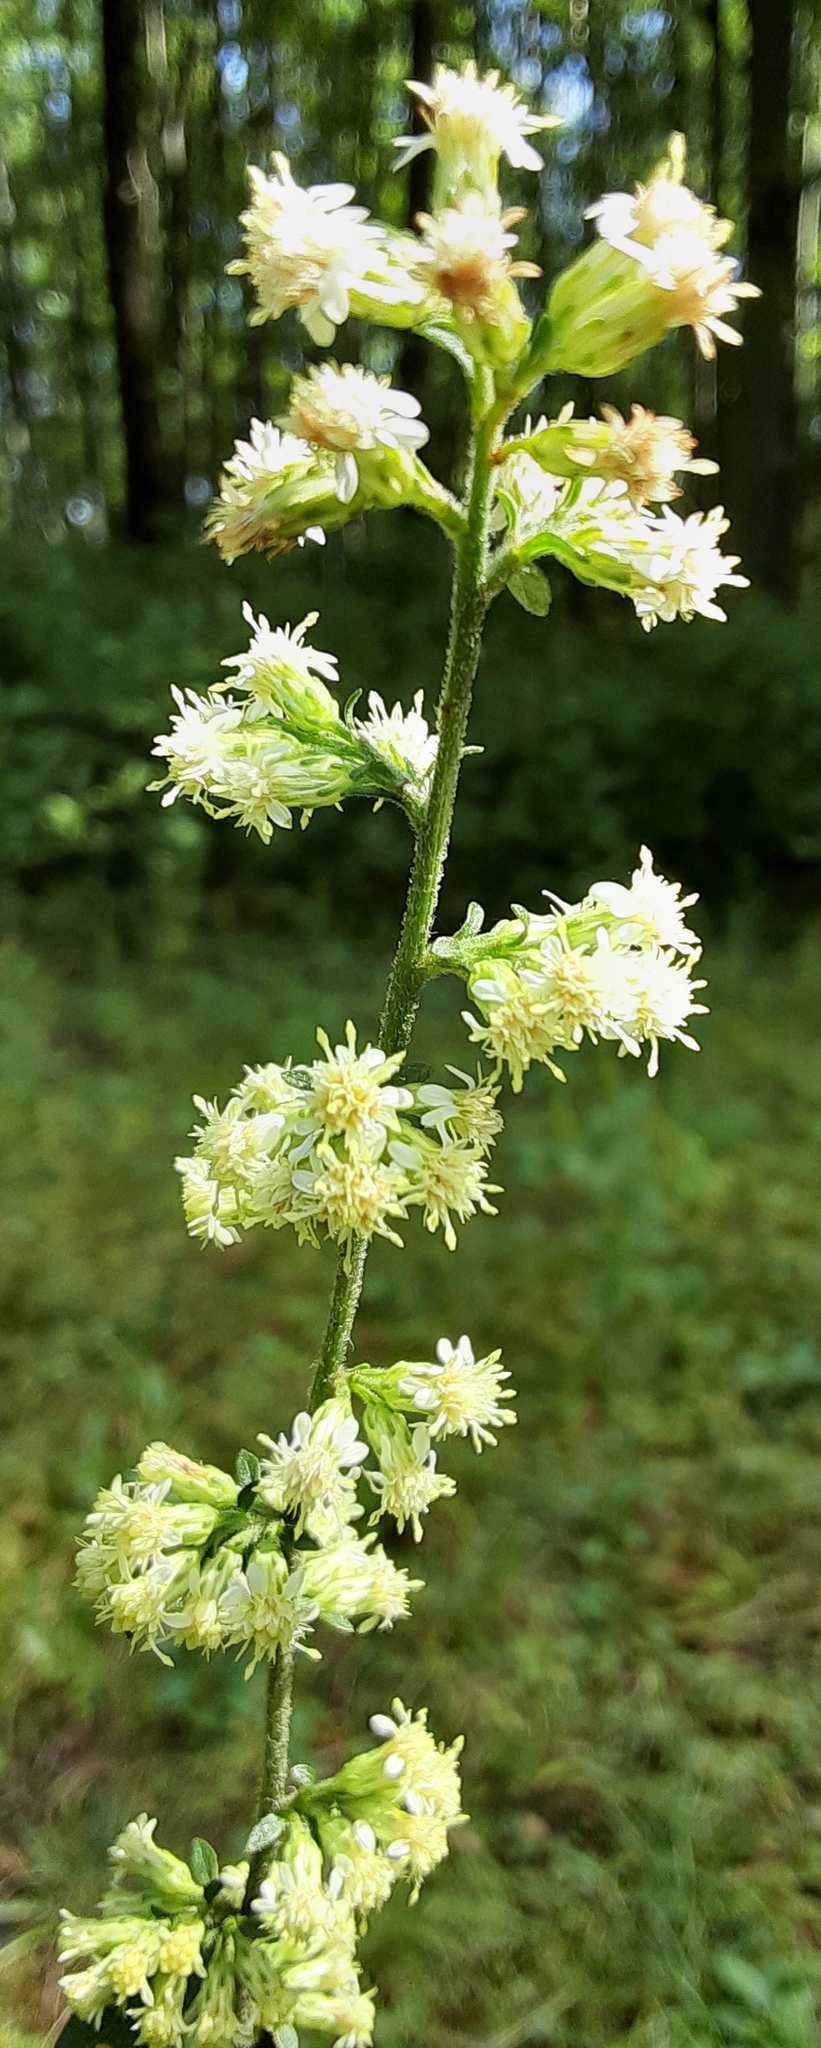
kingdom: Plantae
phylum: Tracheophyta
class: Magnoliopsida
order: Asterales
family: Asteraceae
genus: Solidago
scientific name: Solidago bicolor
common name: Silverrod
